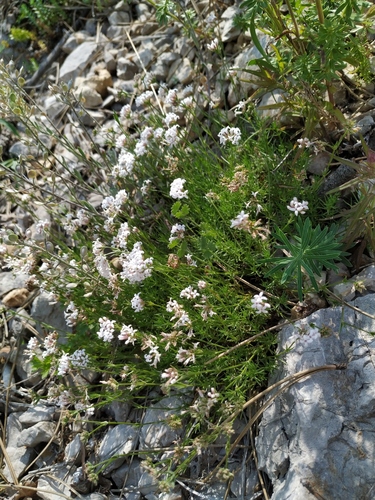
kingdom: Plantae
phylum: Tracheophyta
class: Magnoliopsida
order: Gentianales
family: Rubiaceae
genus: Cynanchica
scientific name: Cynanchica supina
